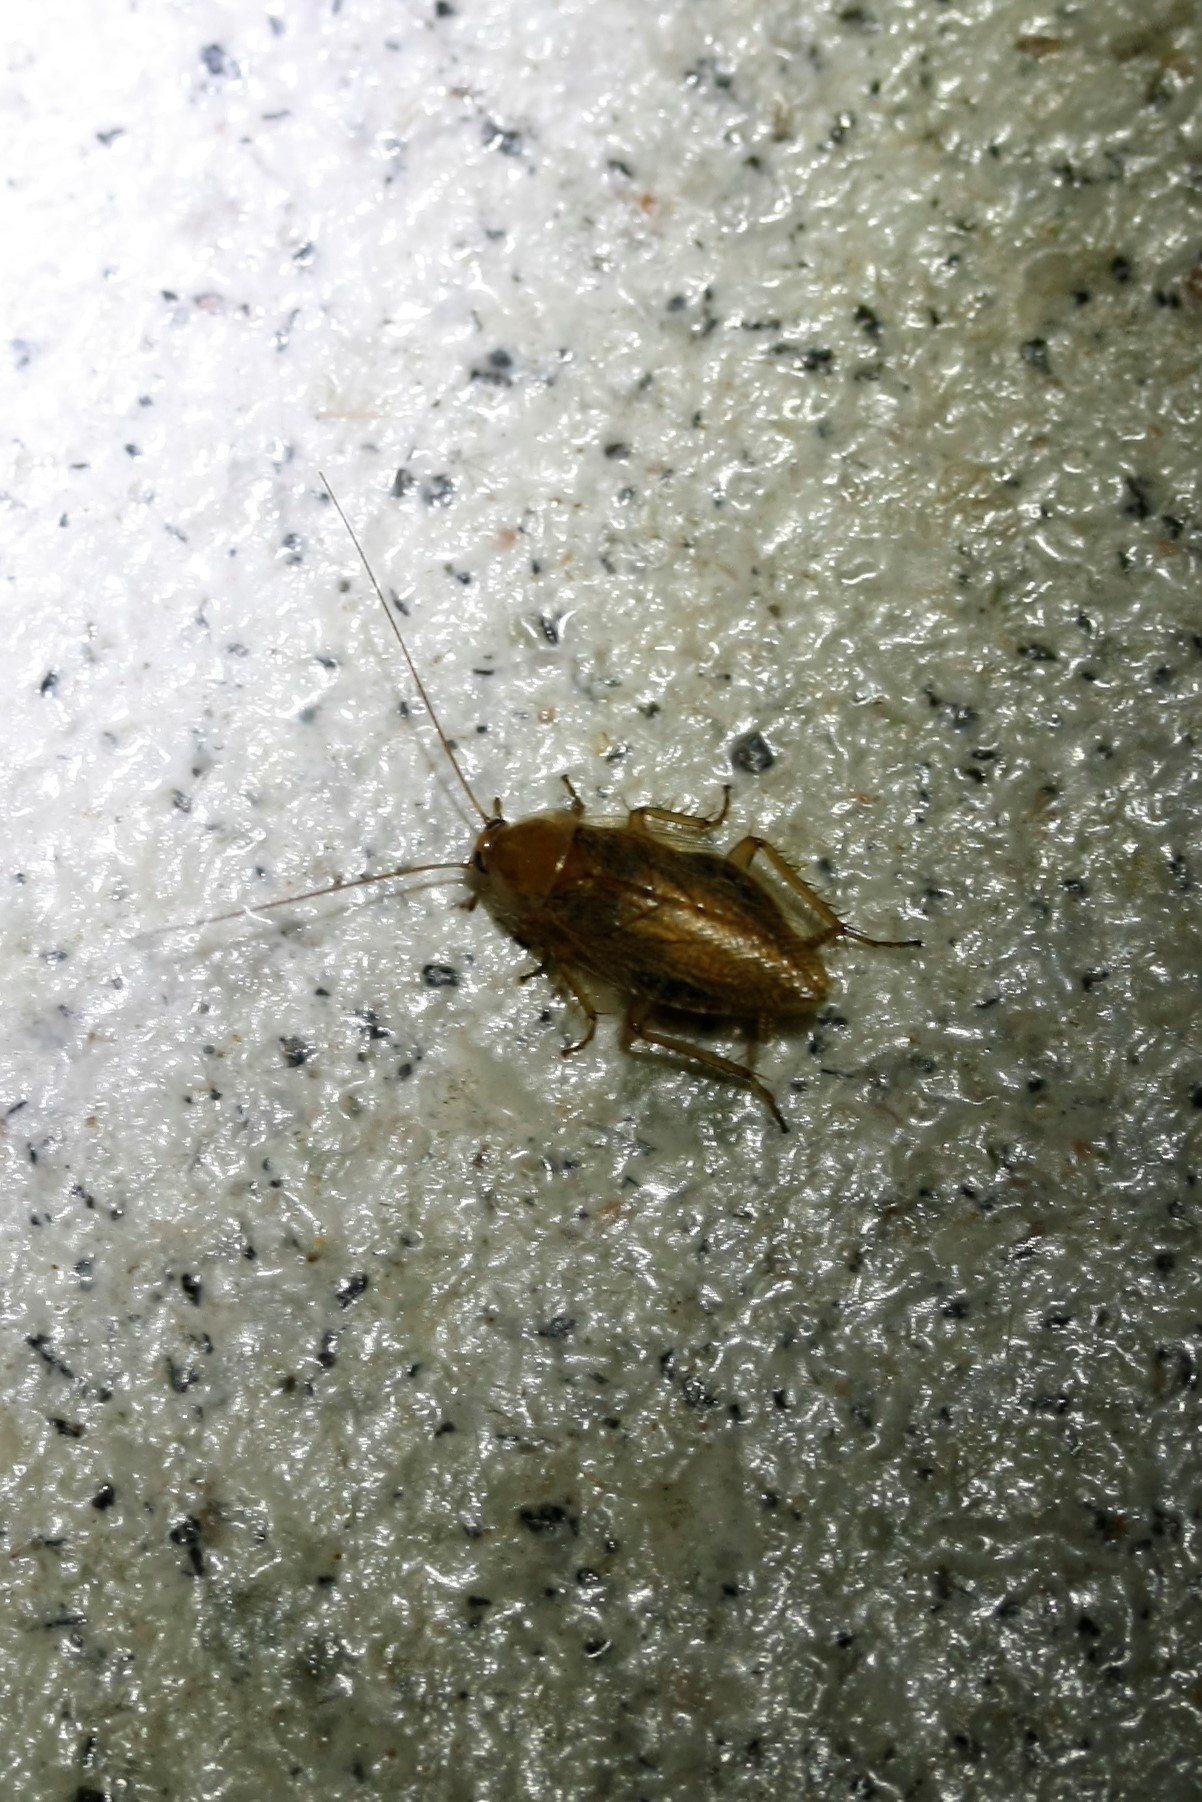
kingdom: Animalia
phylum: Arthropoda
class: Insecta
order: Blattodea
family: Ectobiidae
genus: Ectobius
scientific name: Ectobius vittiventris
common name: Garden cockroach
